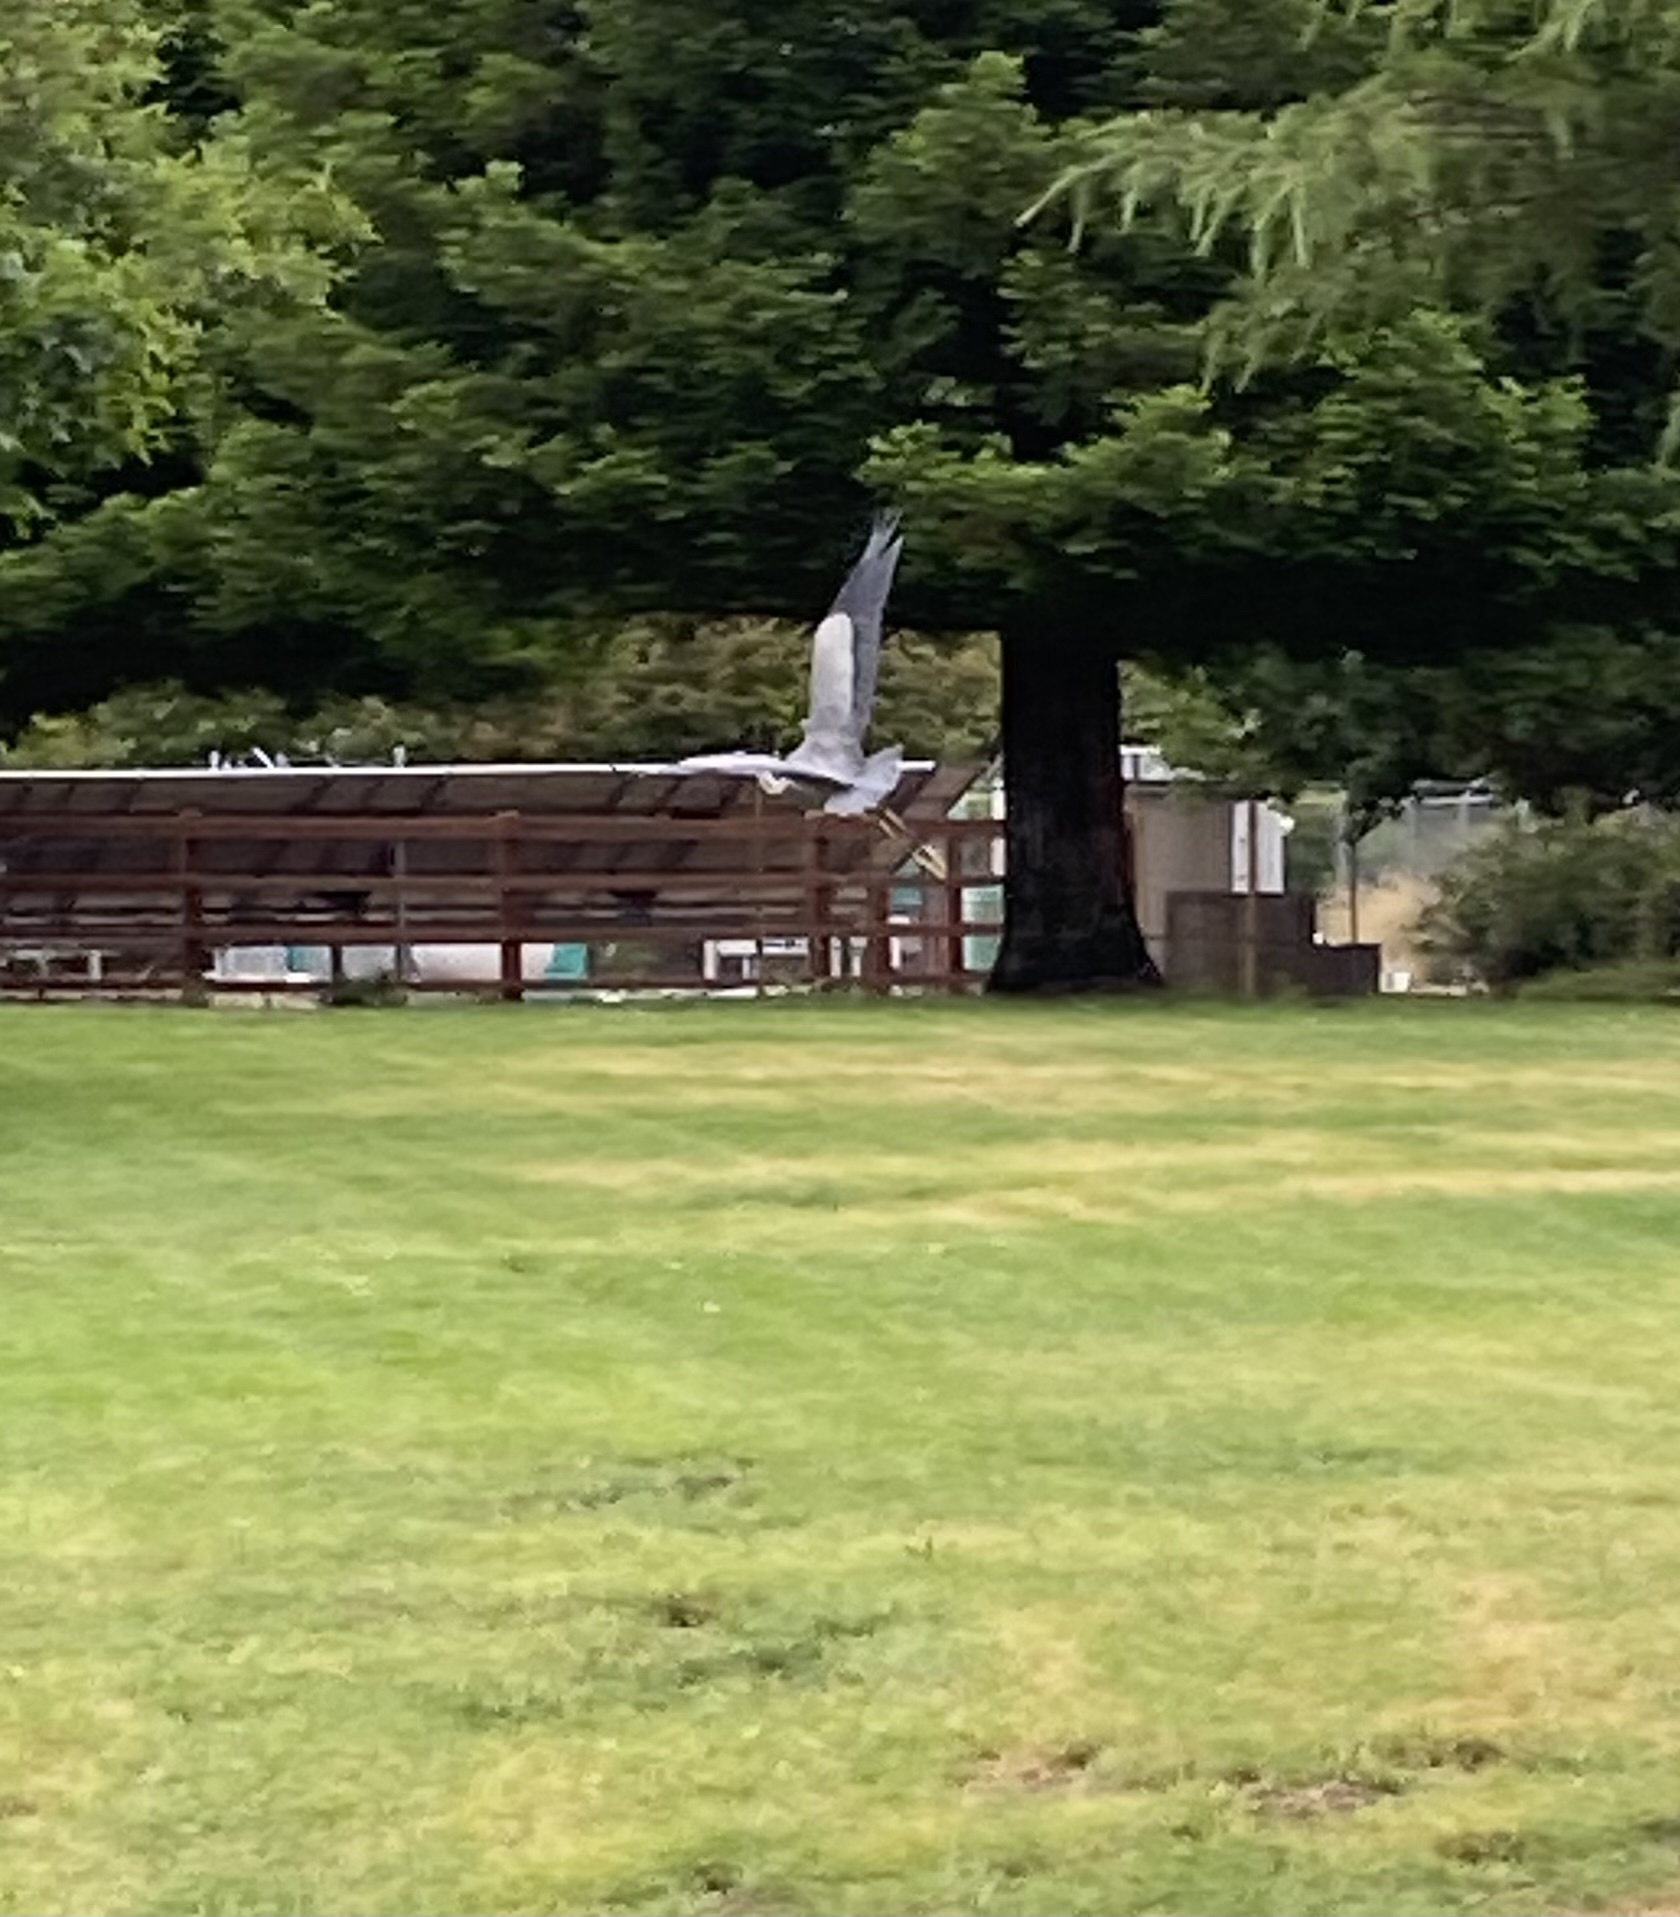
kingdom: Animalia
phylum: Chordata
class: Aves
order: Pelecaniformes
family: Ardeidae
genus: Ardea
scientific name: Ardea herodias
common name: Great blue heron
